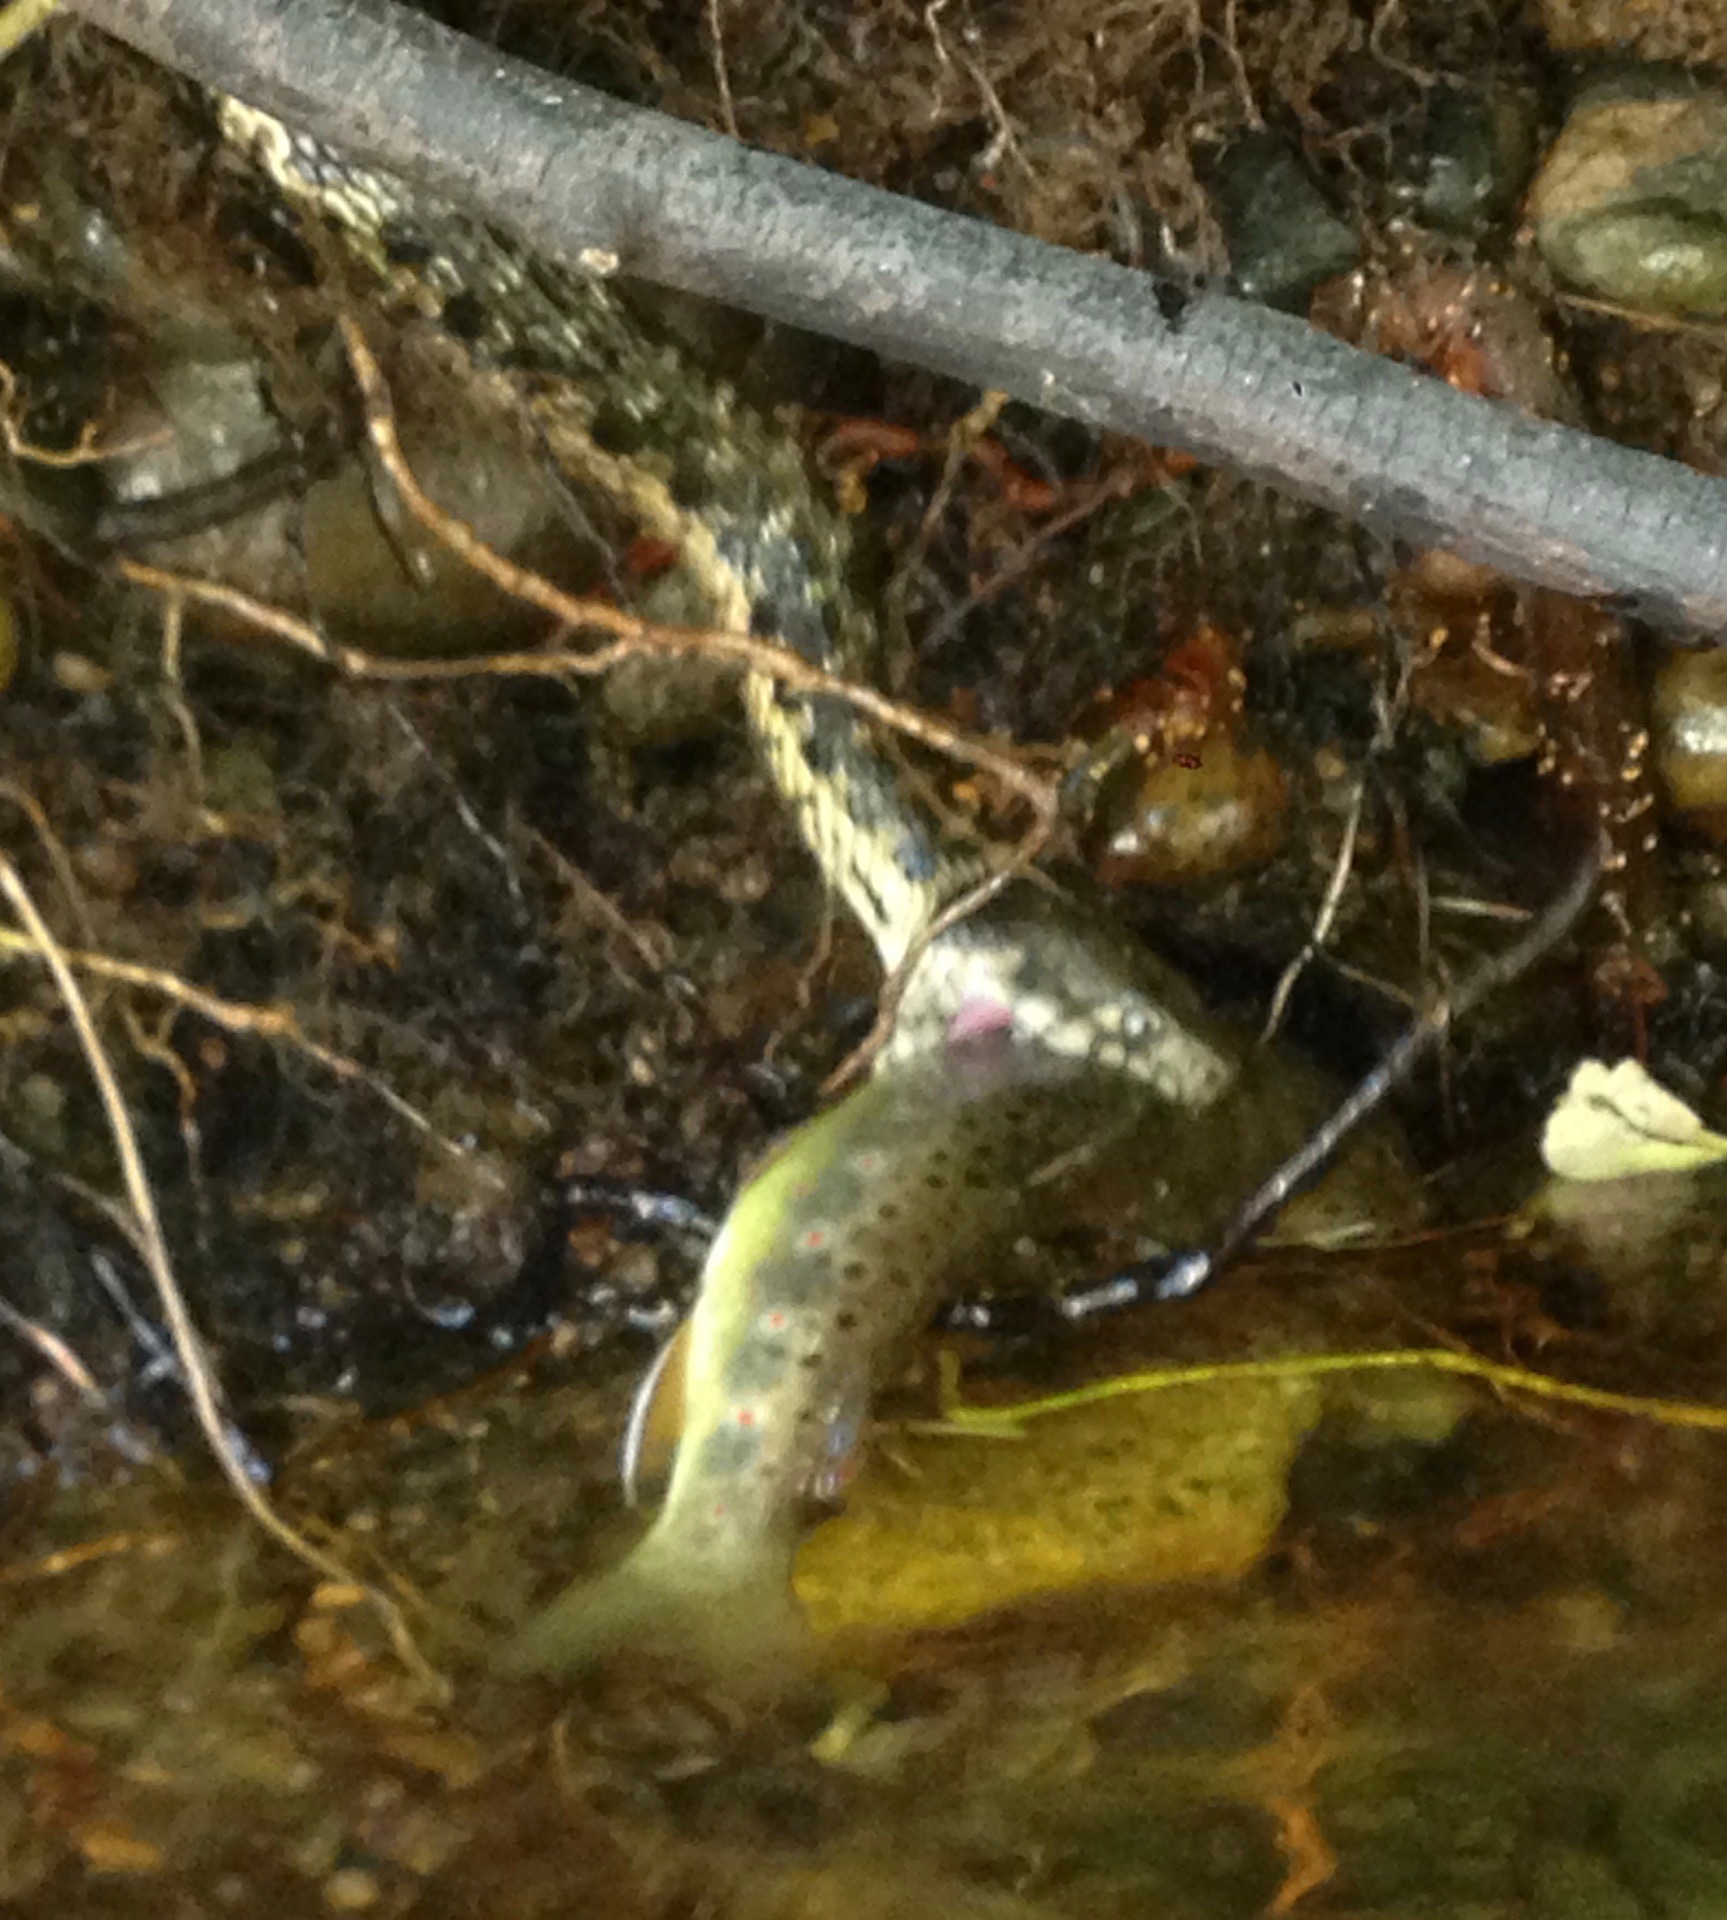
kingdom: Animalia
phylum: Chordata
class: Squamata
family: Colubridae
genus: Thamnophis
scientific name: Thamnophis couchii
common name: Western aquatic garter snake
